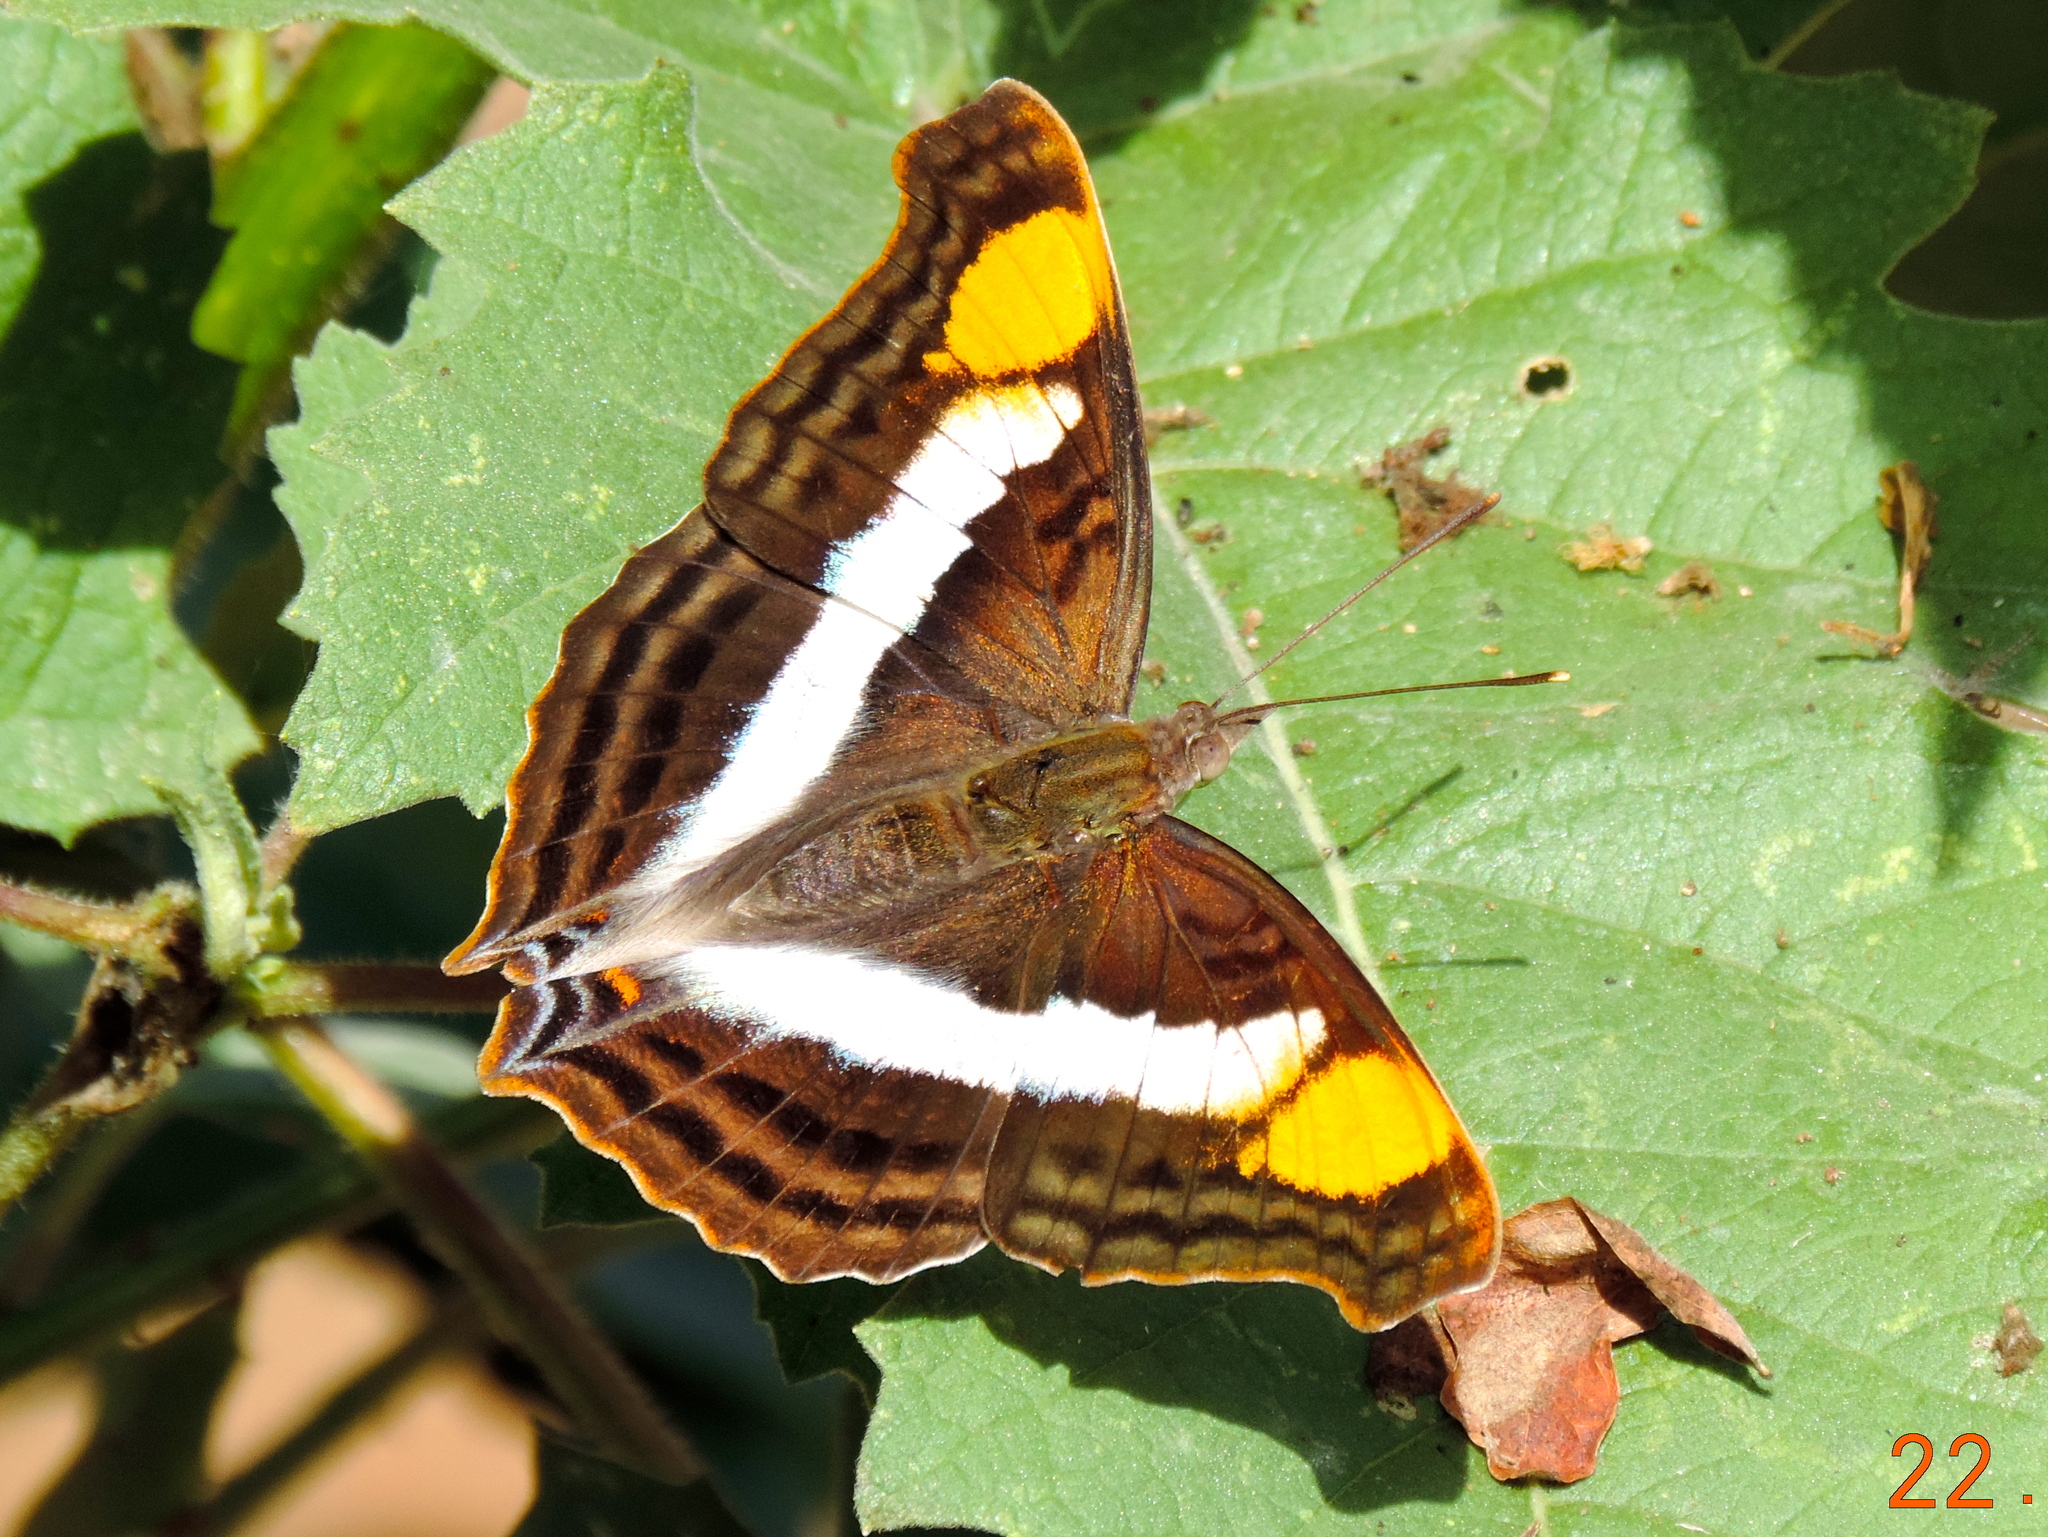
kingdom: Animalia
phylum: Arthropoda
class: Insecta
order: Lepidoptera
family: Nymphalidae
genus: Doxocopa
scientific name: Doxocopa laure
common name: Silver emperor
